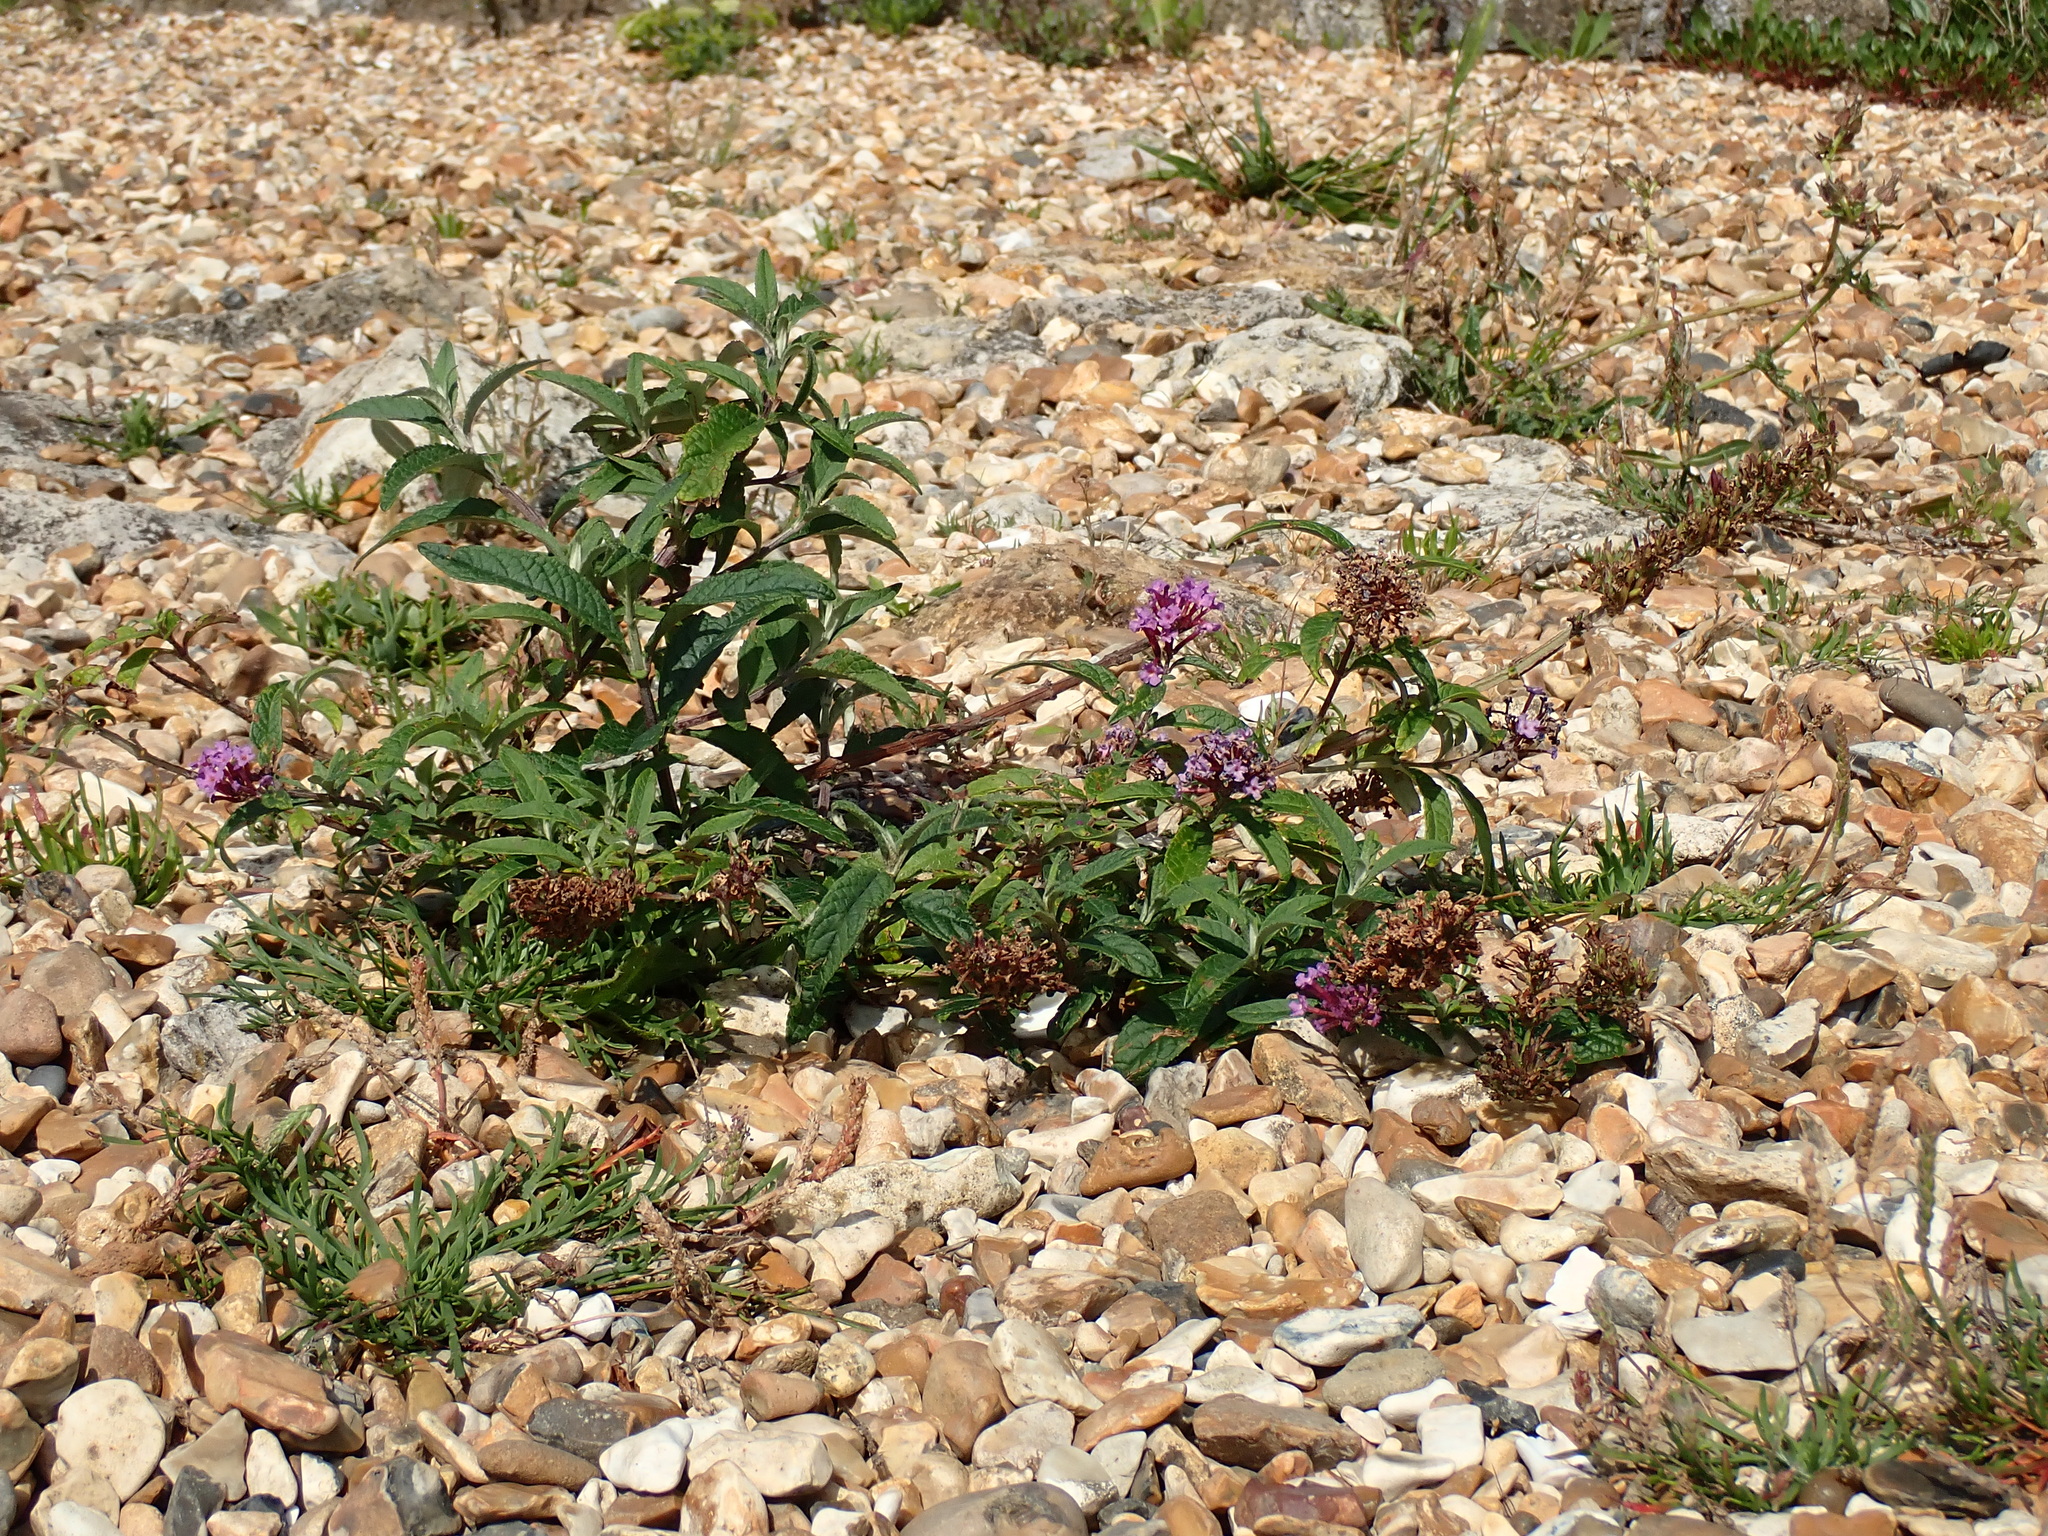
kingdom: Plantae
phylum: Tracheophyta
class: Magnoliopsida
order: Lamiales
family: Scrophulariaceae
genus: Buddleja
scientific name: Buddleja davidii
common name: Butterfly-bush
